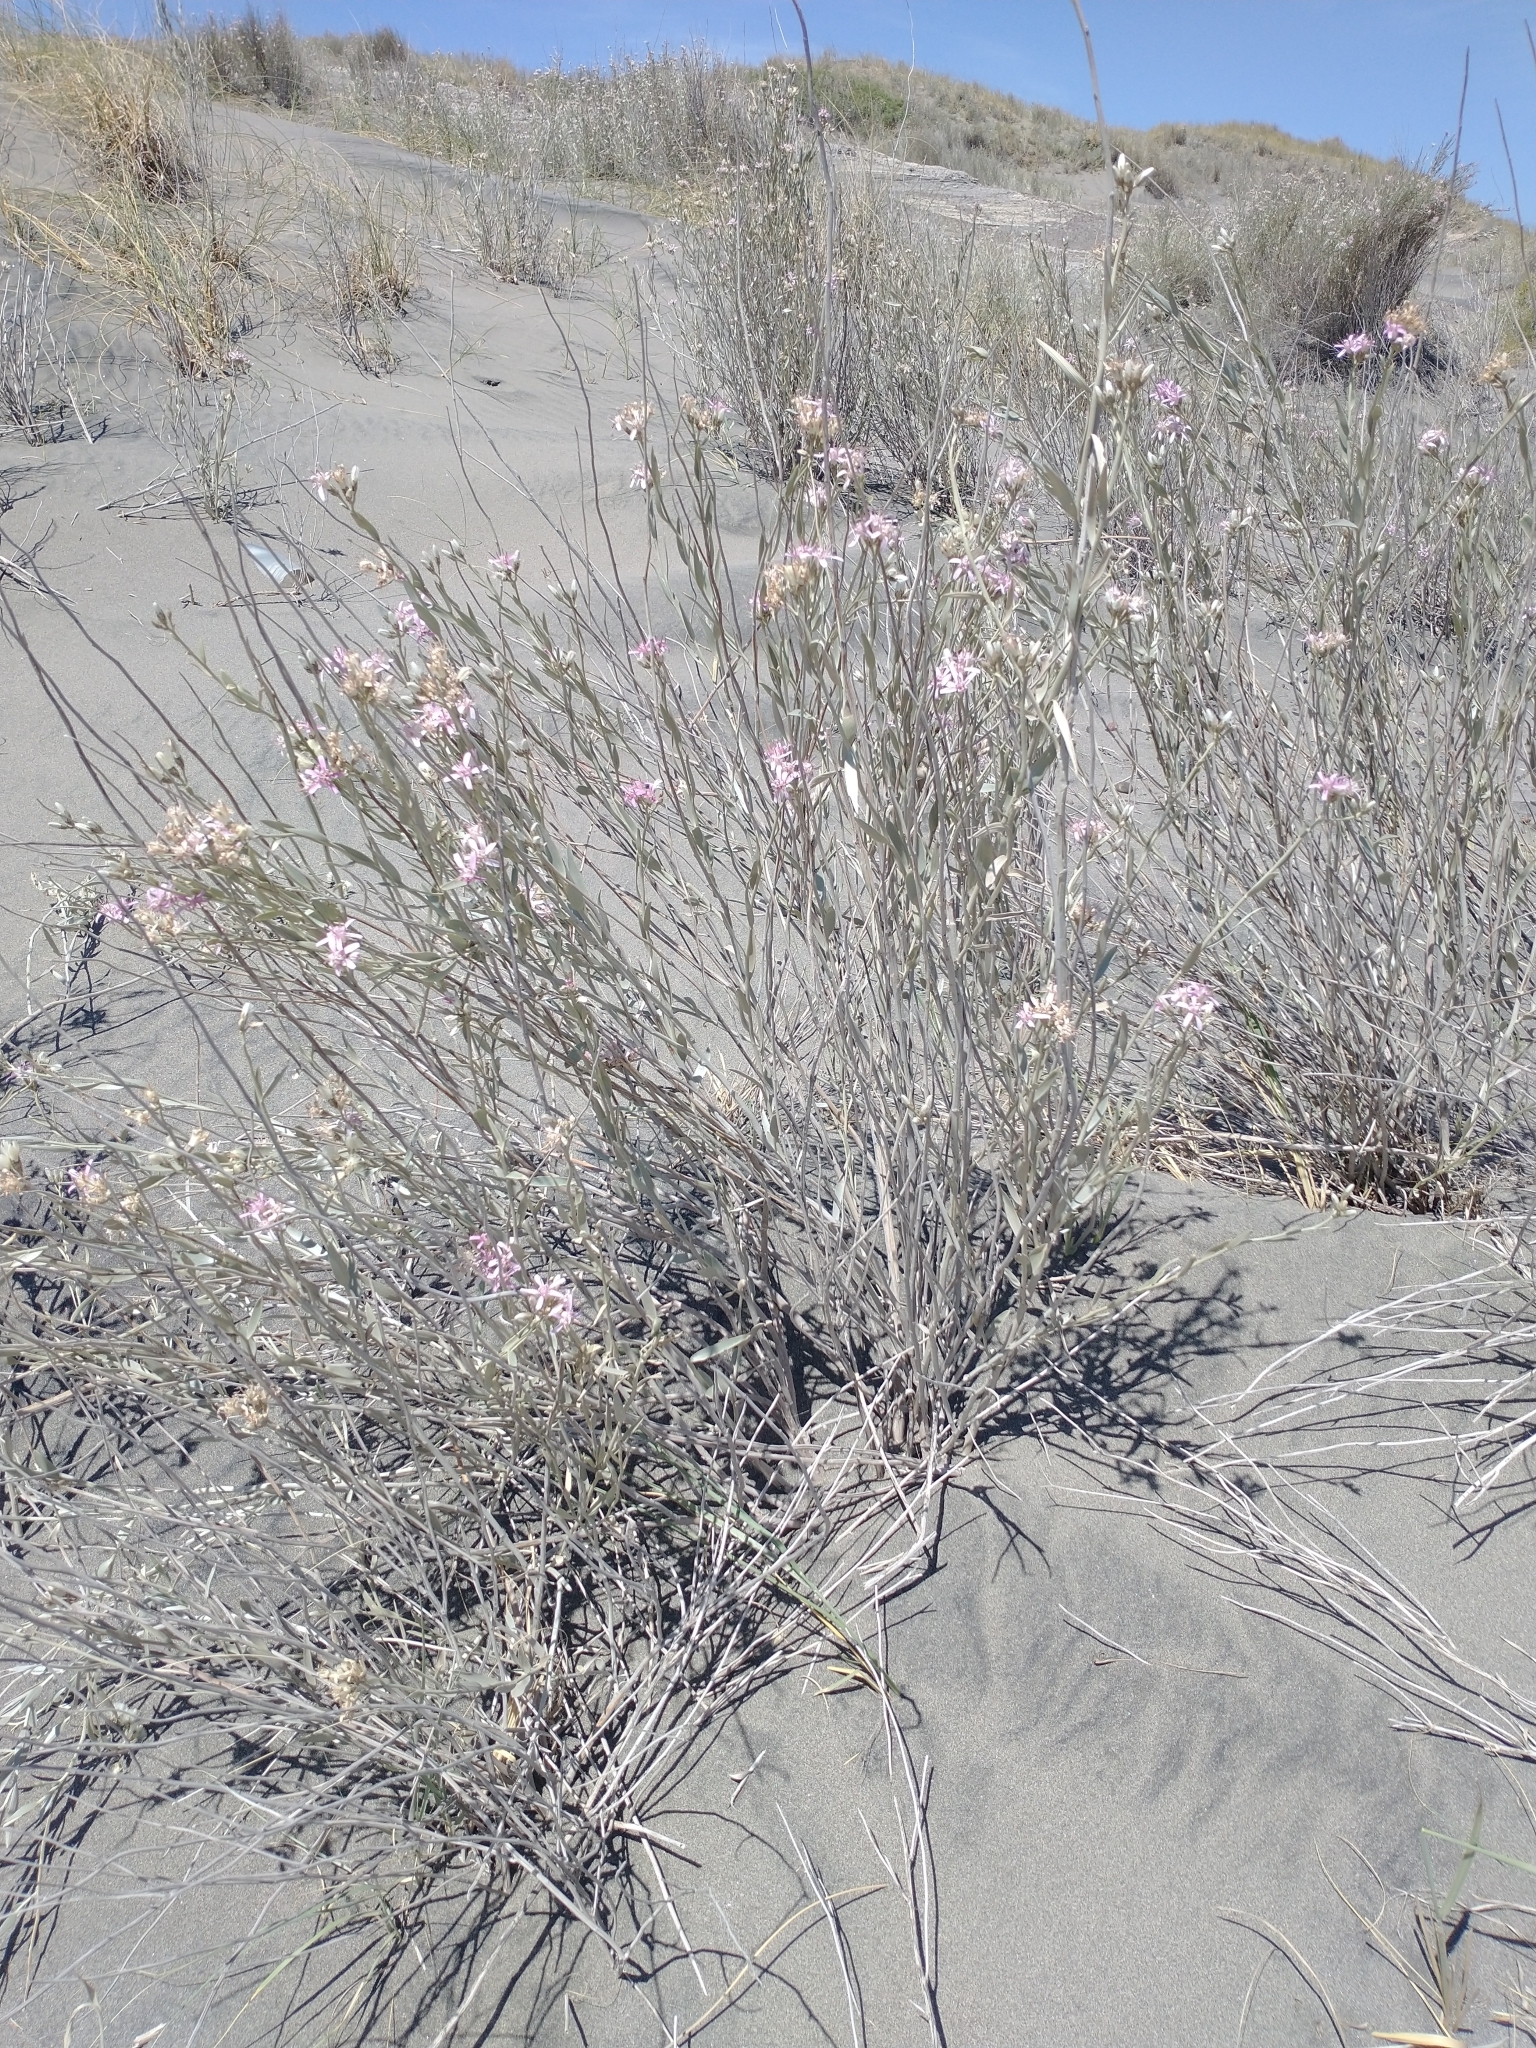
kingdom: Plantae
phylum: Tracheophyta
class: Magnoliopsida
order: Asterales
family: Asteraceae
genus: Hyalis
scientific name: Hyalis argentea
